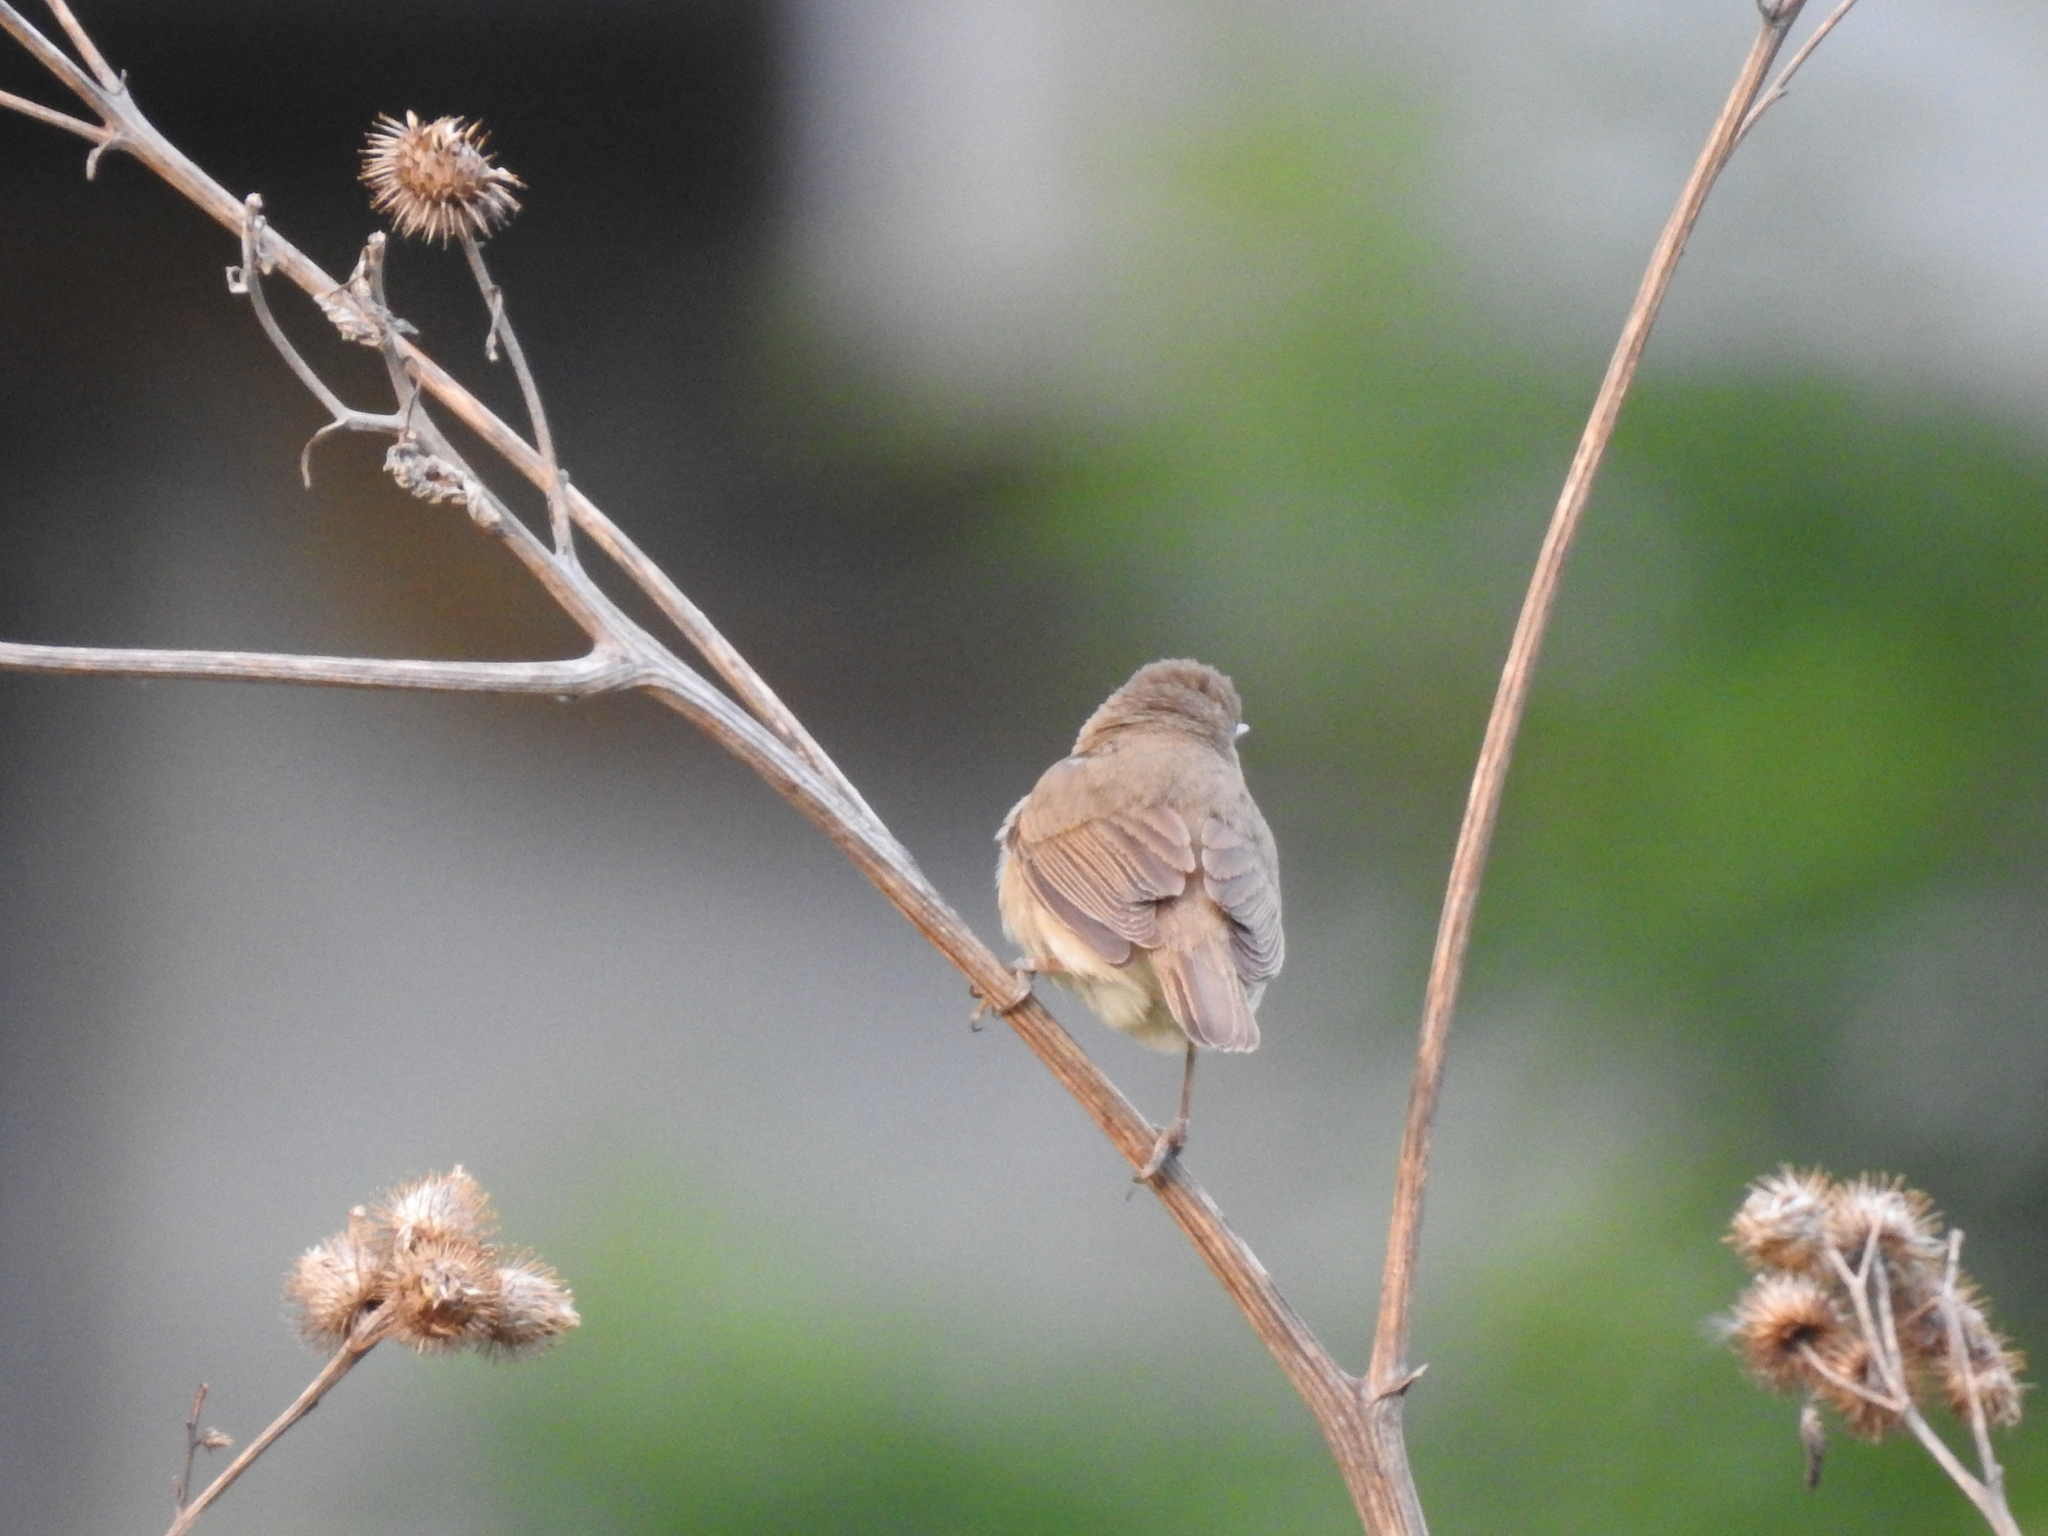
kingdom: Animalia
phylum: Chordata
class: Aves
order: Passeriformes
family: Acrocephalidae
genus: Acrocephalus
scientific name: Acrocephalus dumetorum
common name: Blyth's reed warbler
